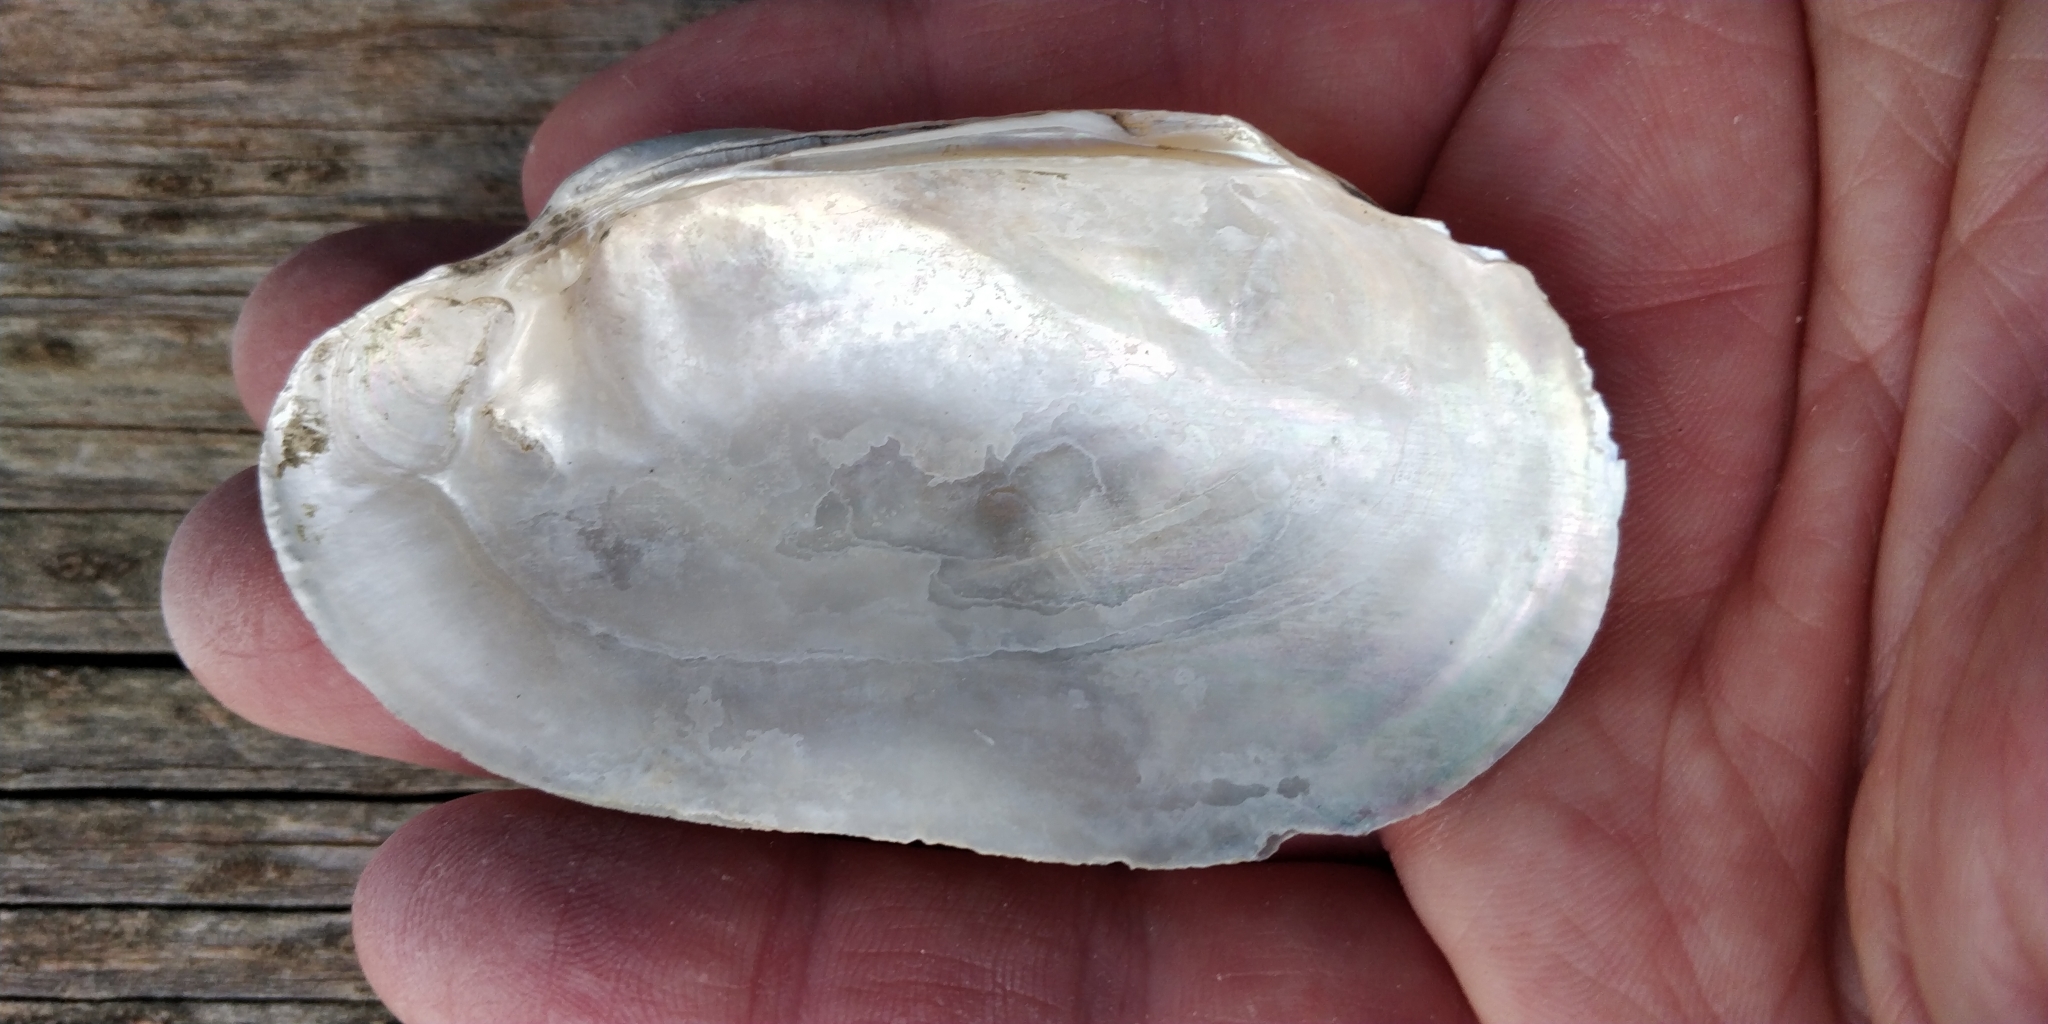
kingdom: Animalia
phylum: Mollusca
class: Bivalvia
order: Unionida
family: Unionidae
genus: Lampsilis
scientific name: Lampsilis siliquoidea
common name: Fatmucket
